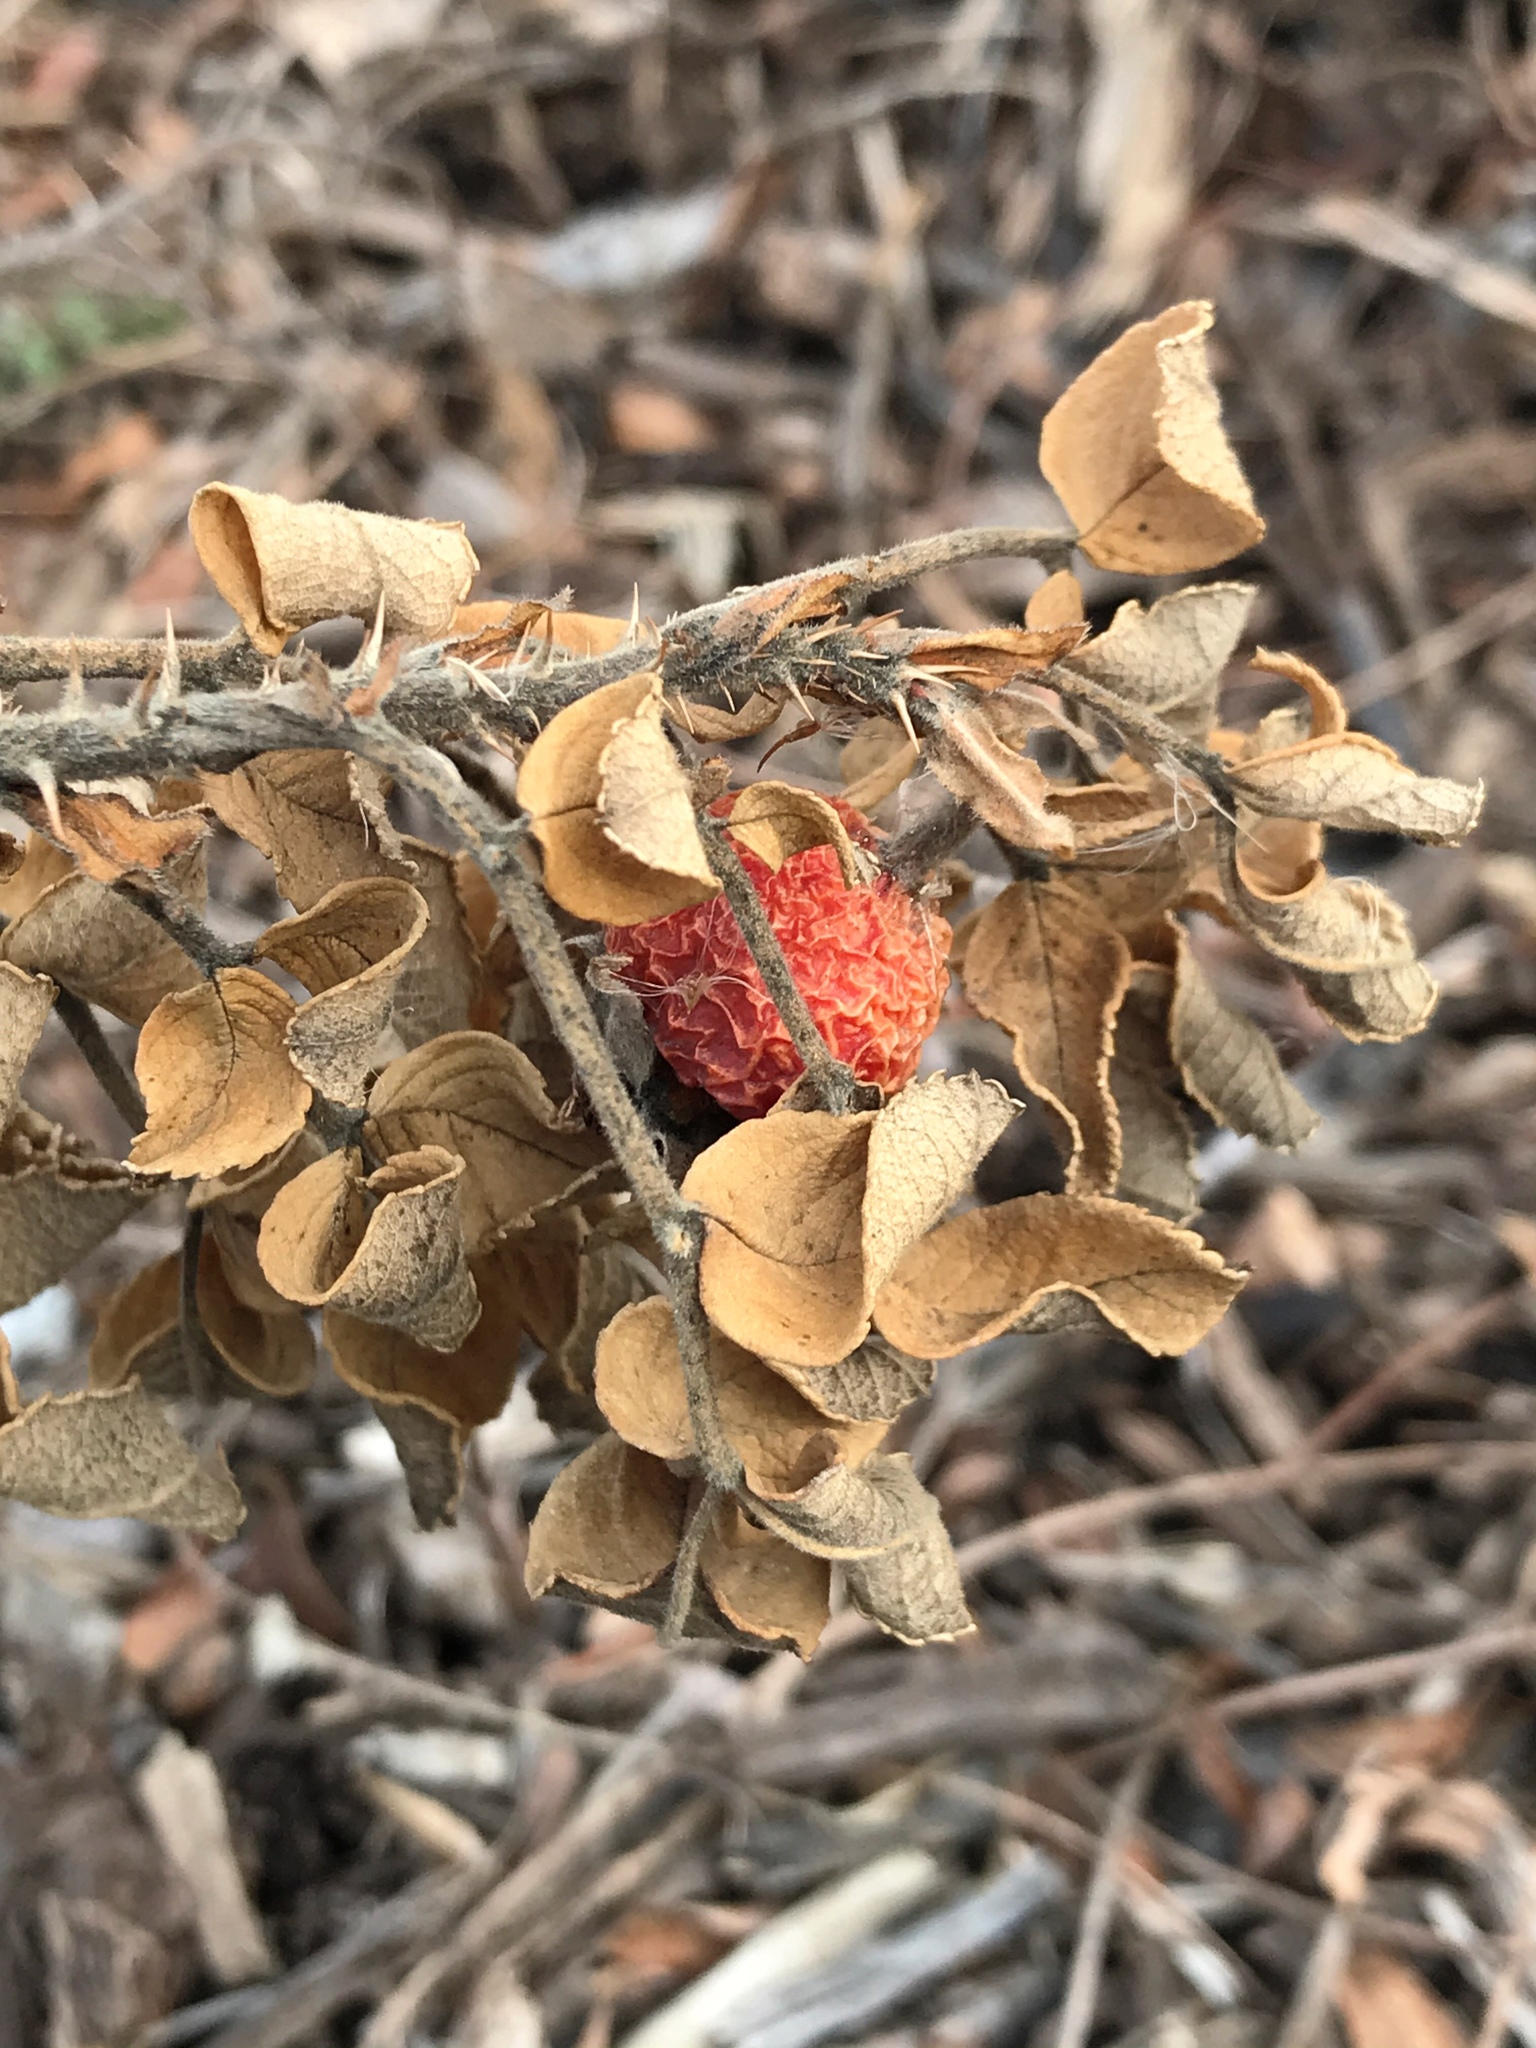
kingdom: Plantae
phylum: Tracheophyta
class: Magnoliopsida
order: Rosales
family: Rosaceae
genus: Rosa
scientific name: Rosa rugosa
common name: Japanese rose
